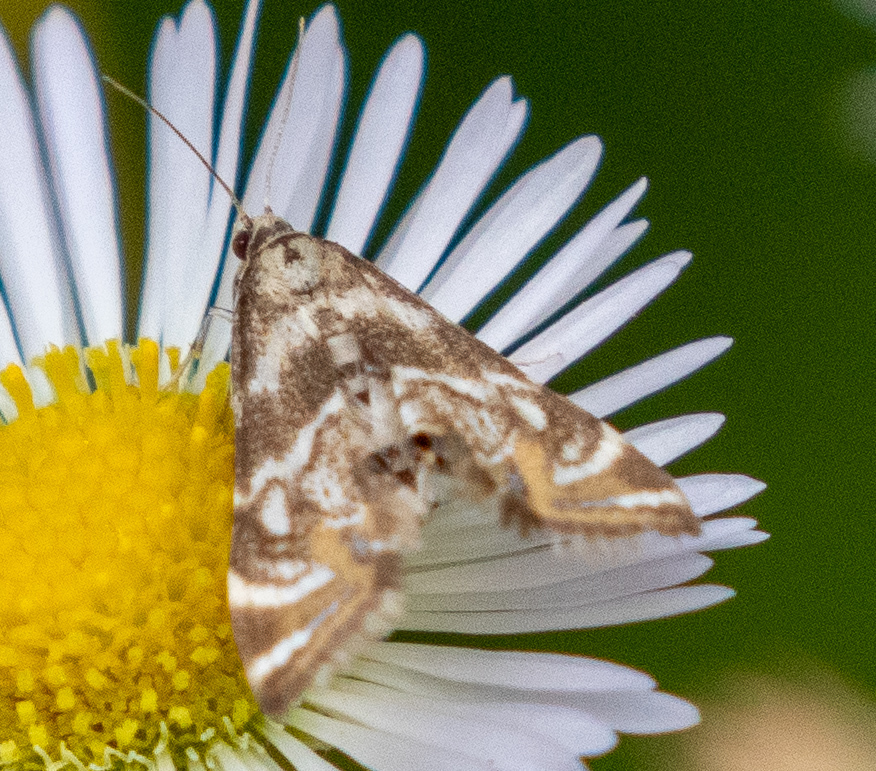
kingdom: Animalia
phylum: Arthropoda
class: Insecta
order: Lepidoptera
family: Crambidae
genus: Petrophila
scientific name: Petrophila canadensis
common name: Canadian petrophila
